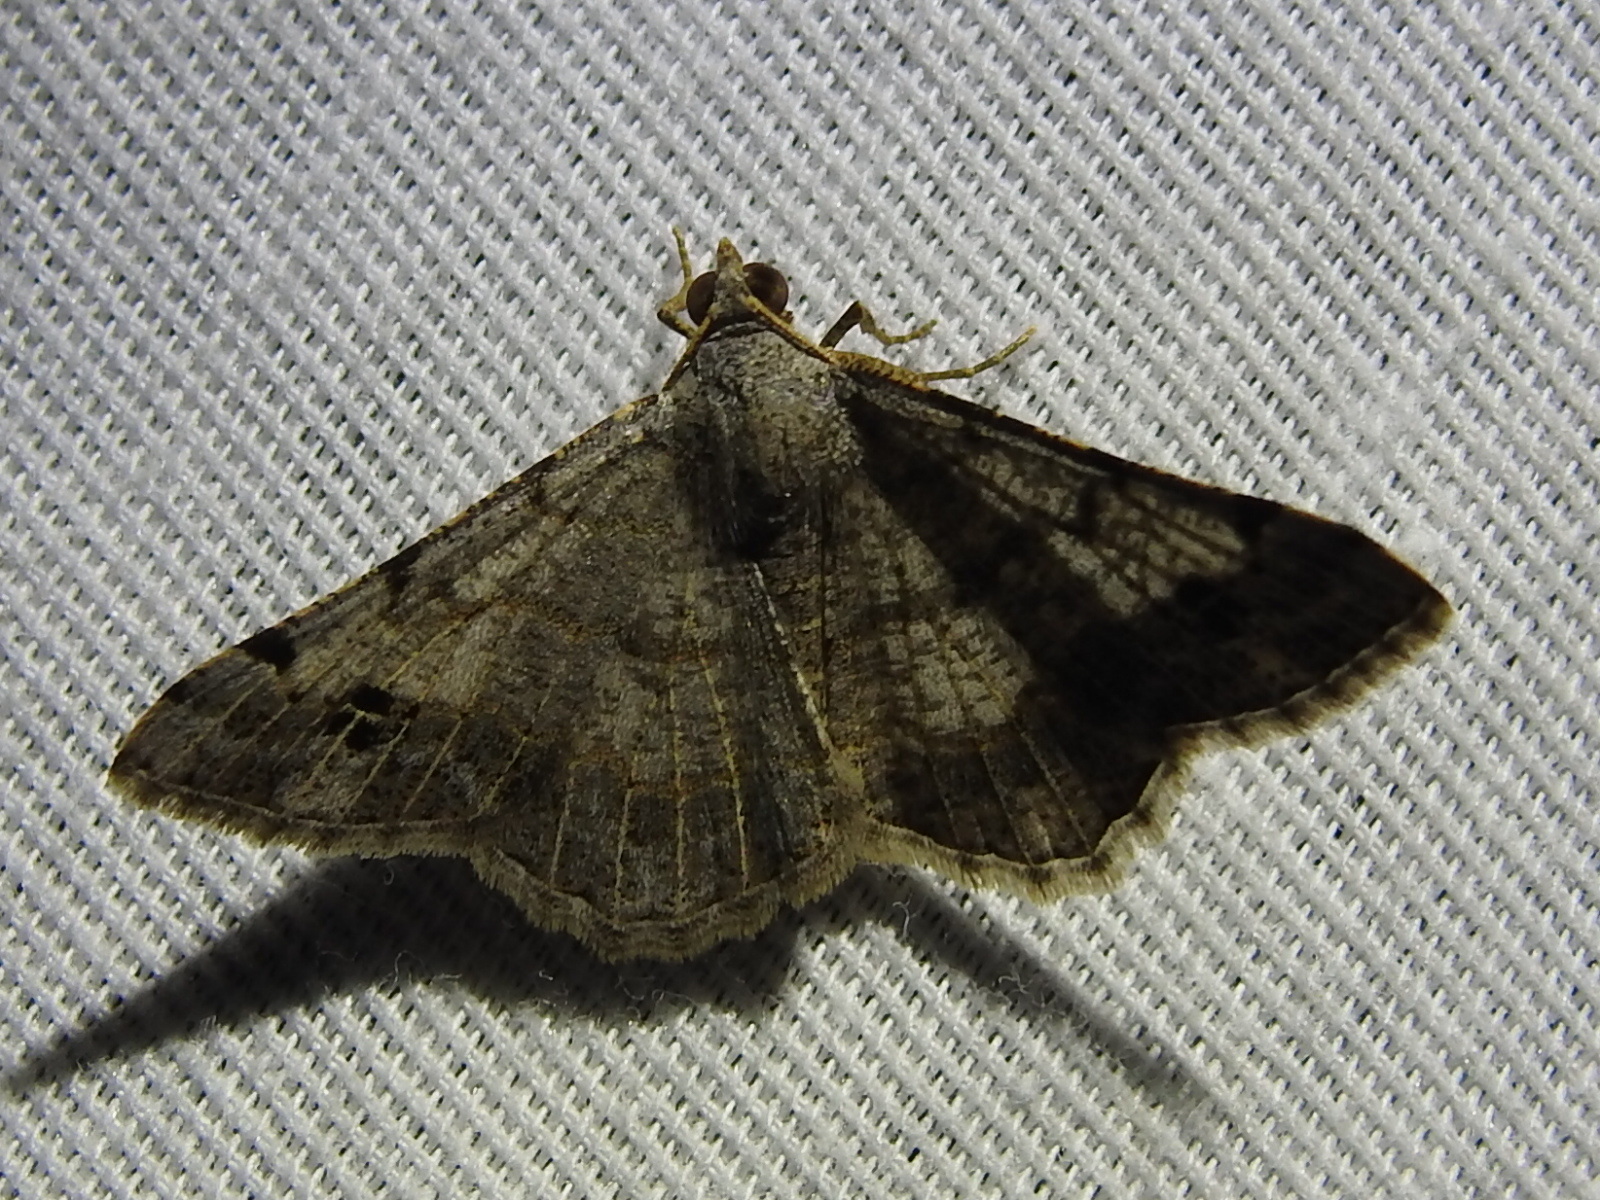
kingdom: Animalia
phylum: Arthropoda
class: Insecta
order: Lepidoptera
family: Geometridae
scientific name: Geometridae
